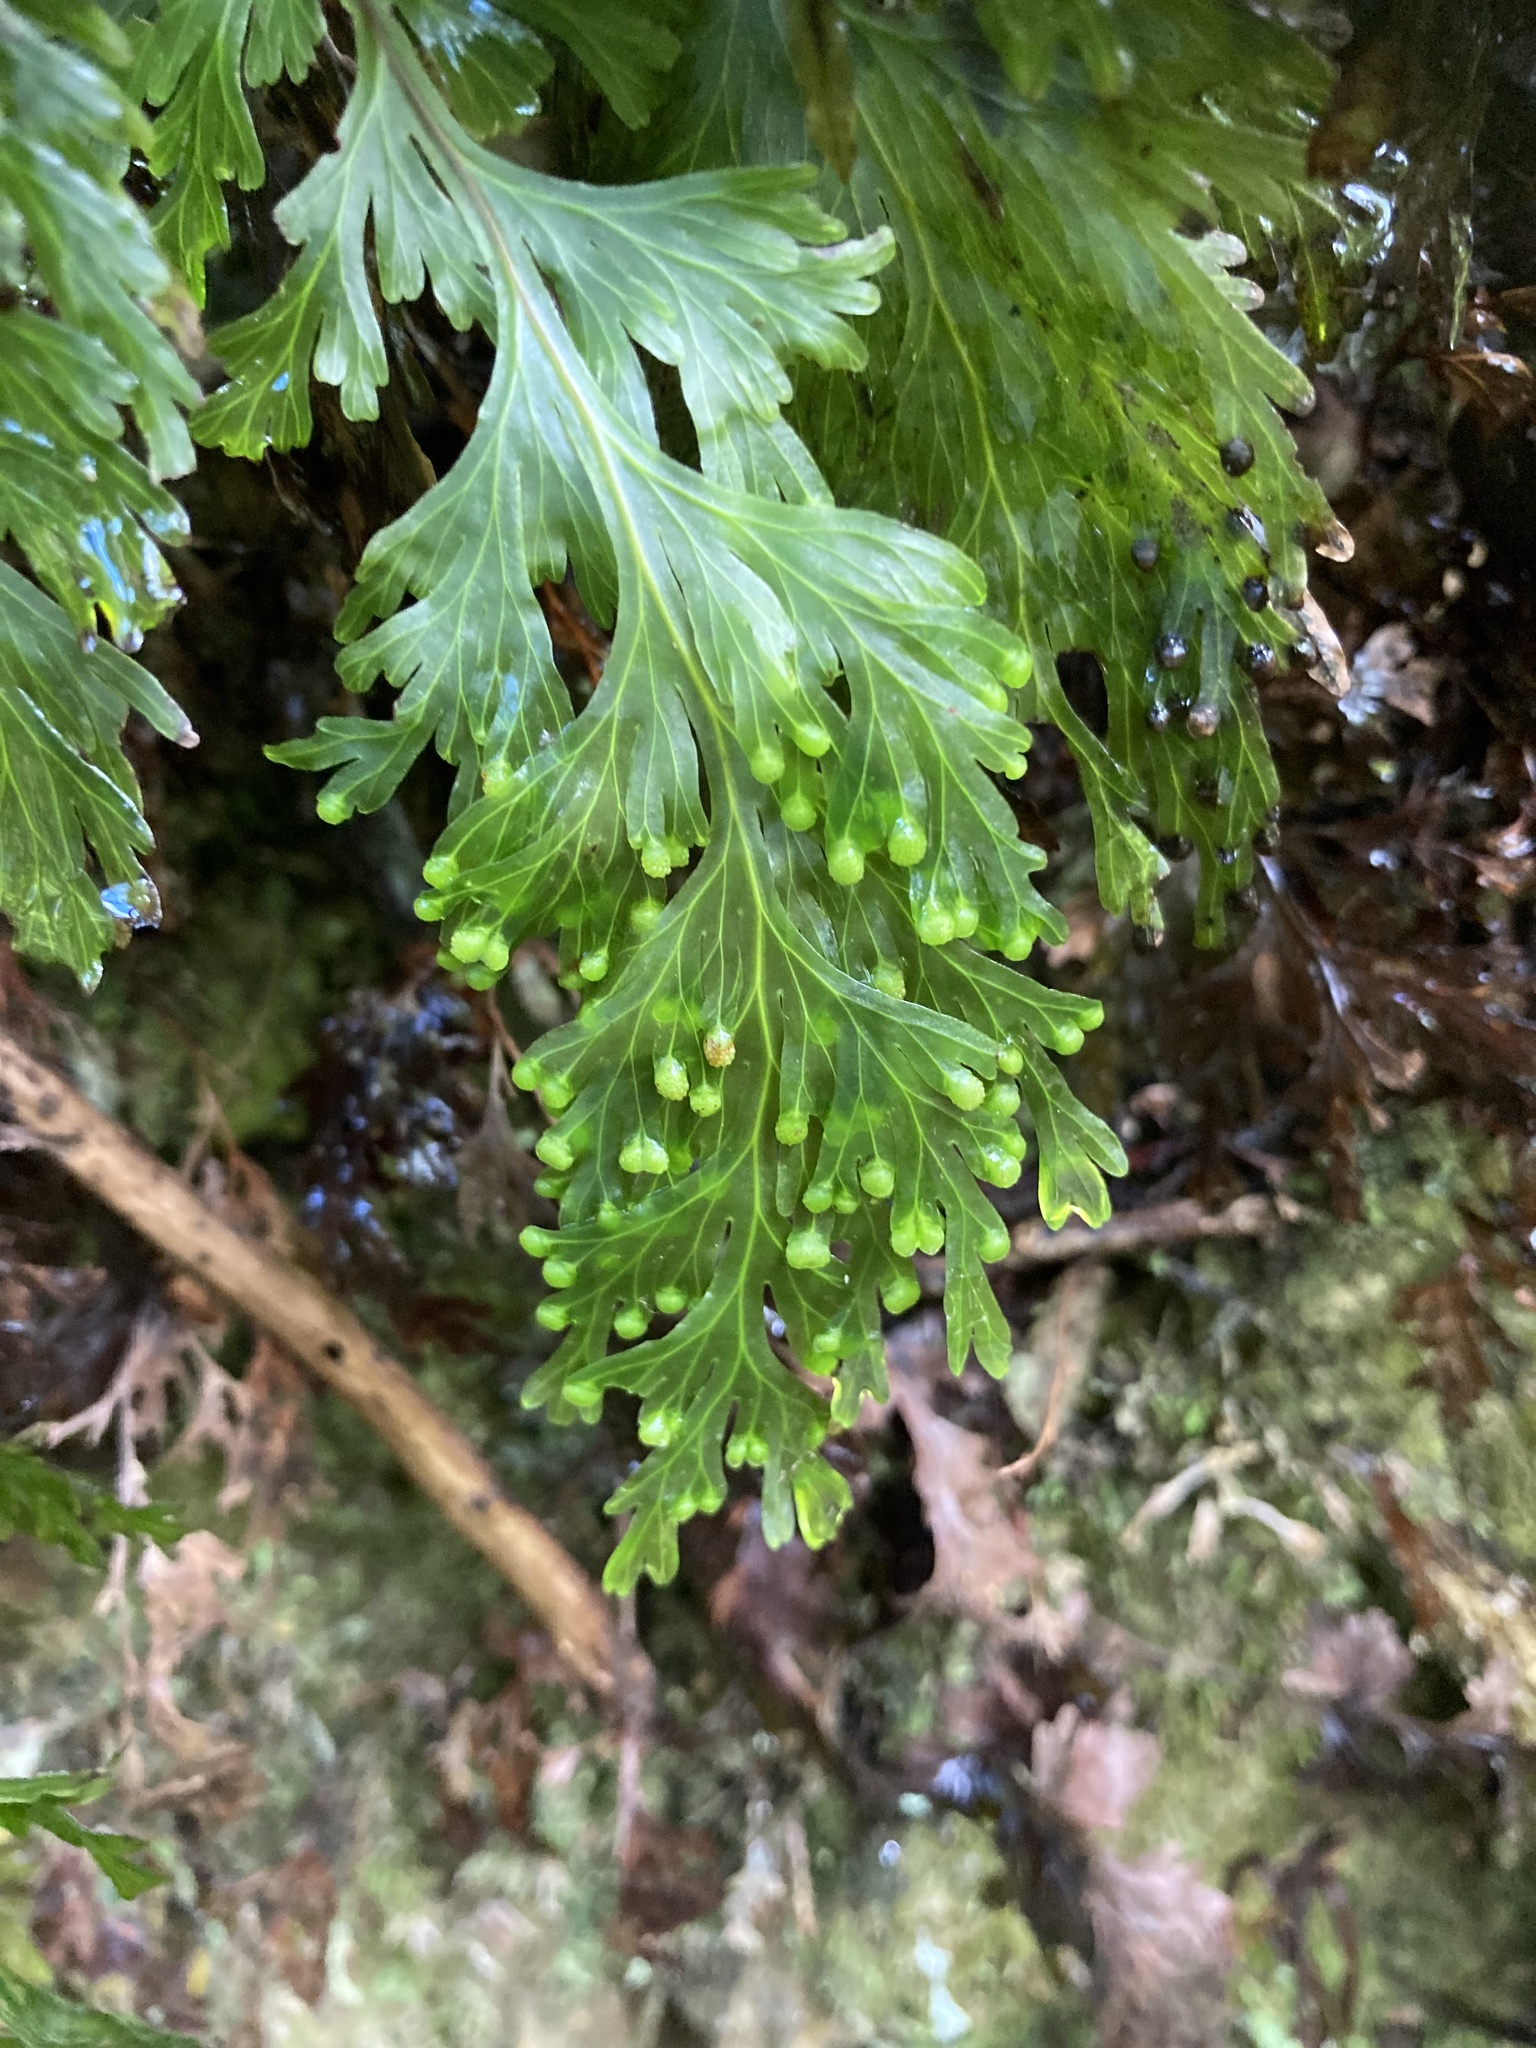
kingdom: Plantae
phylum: Tracheophyta
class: Polypodiopsida
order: Hymenophyllales
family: Hymenophyllaceae
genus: Hymenophyllum
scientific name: Hymenophyllum dilatatum
